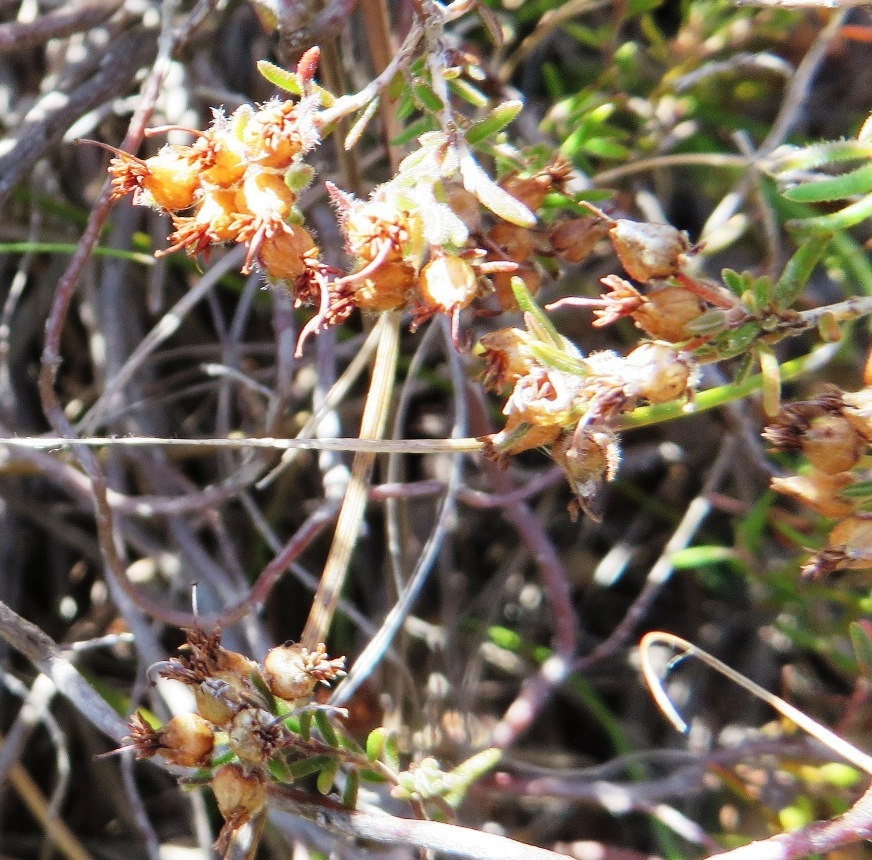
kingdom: Plantae
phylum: Tracheophyta
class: Magnoliopsida
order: Ericales
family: Ericaceae
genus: Erica
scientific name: Erica filiformis
